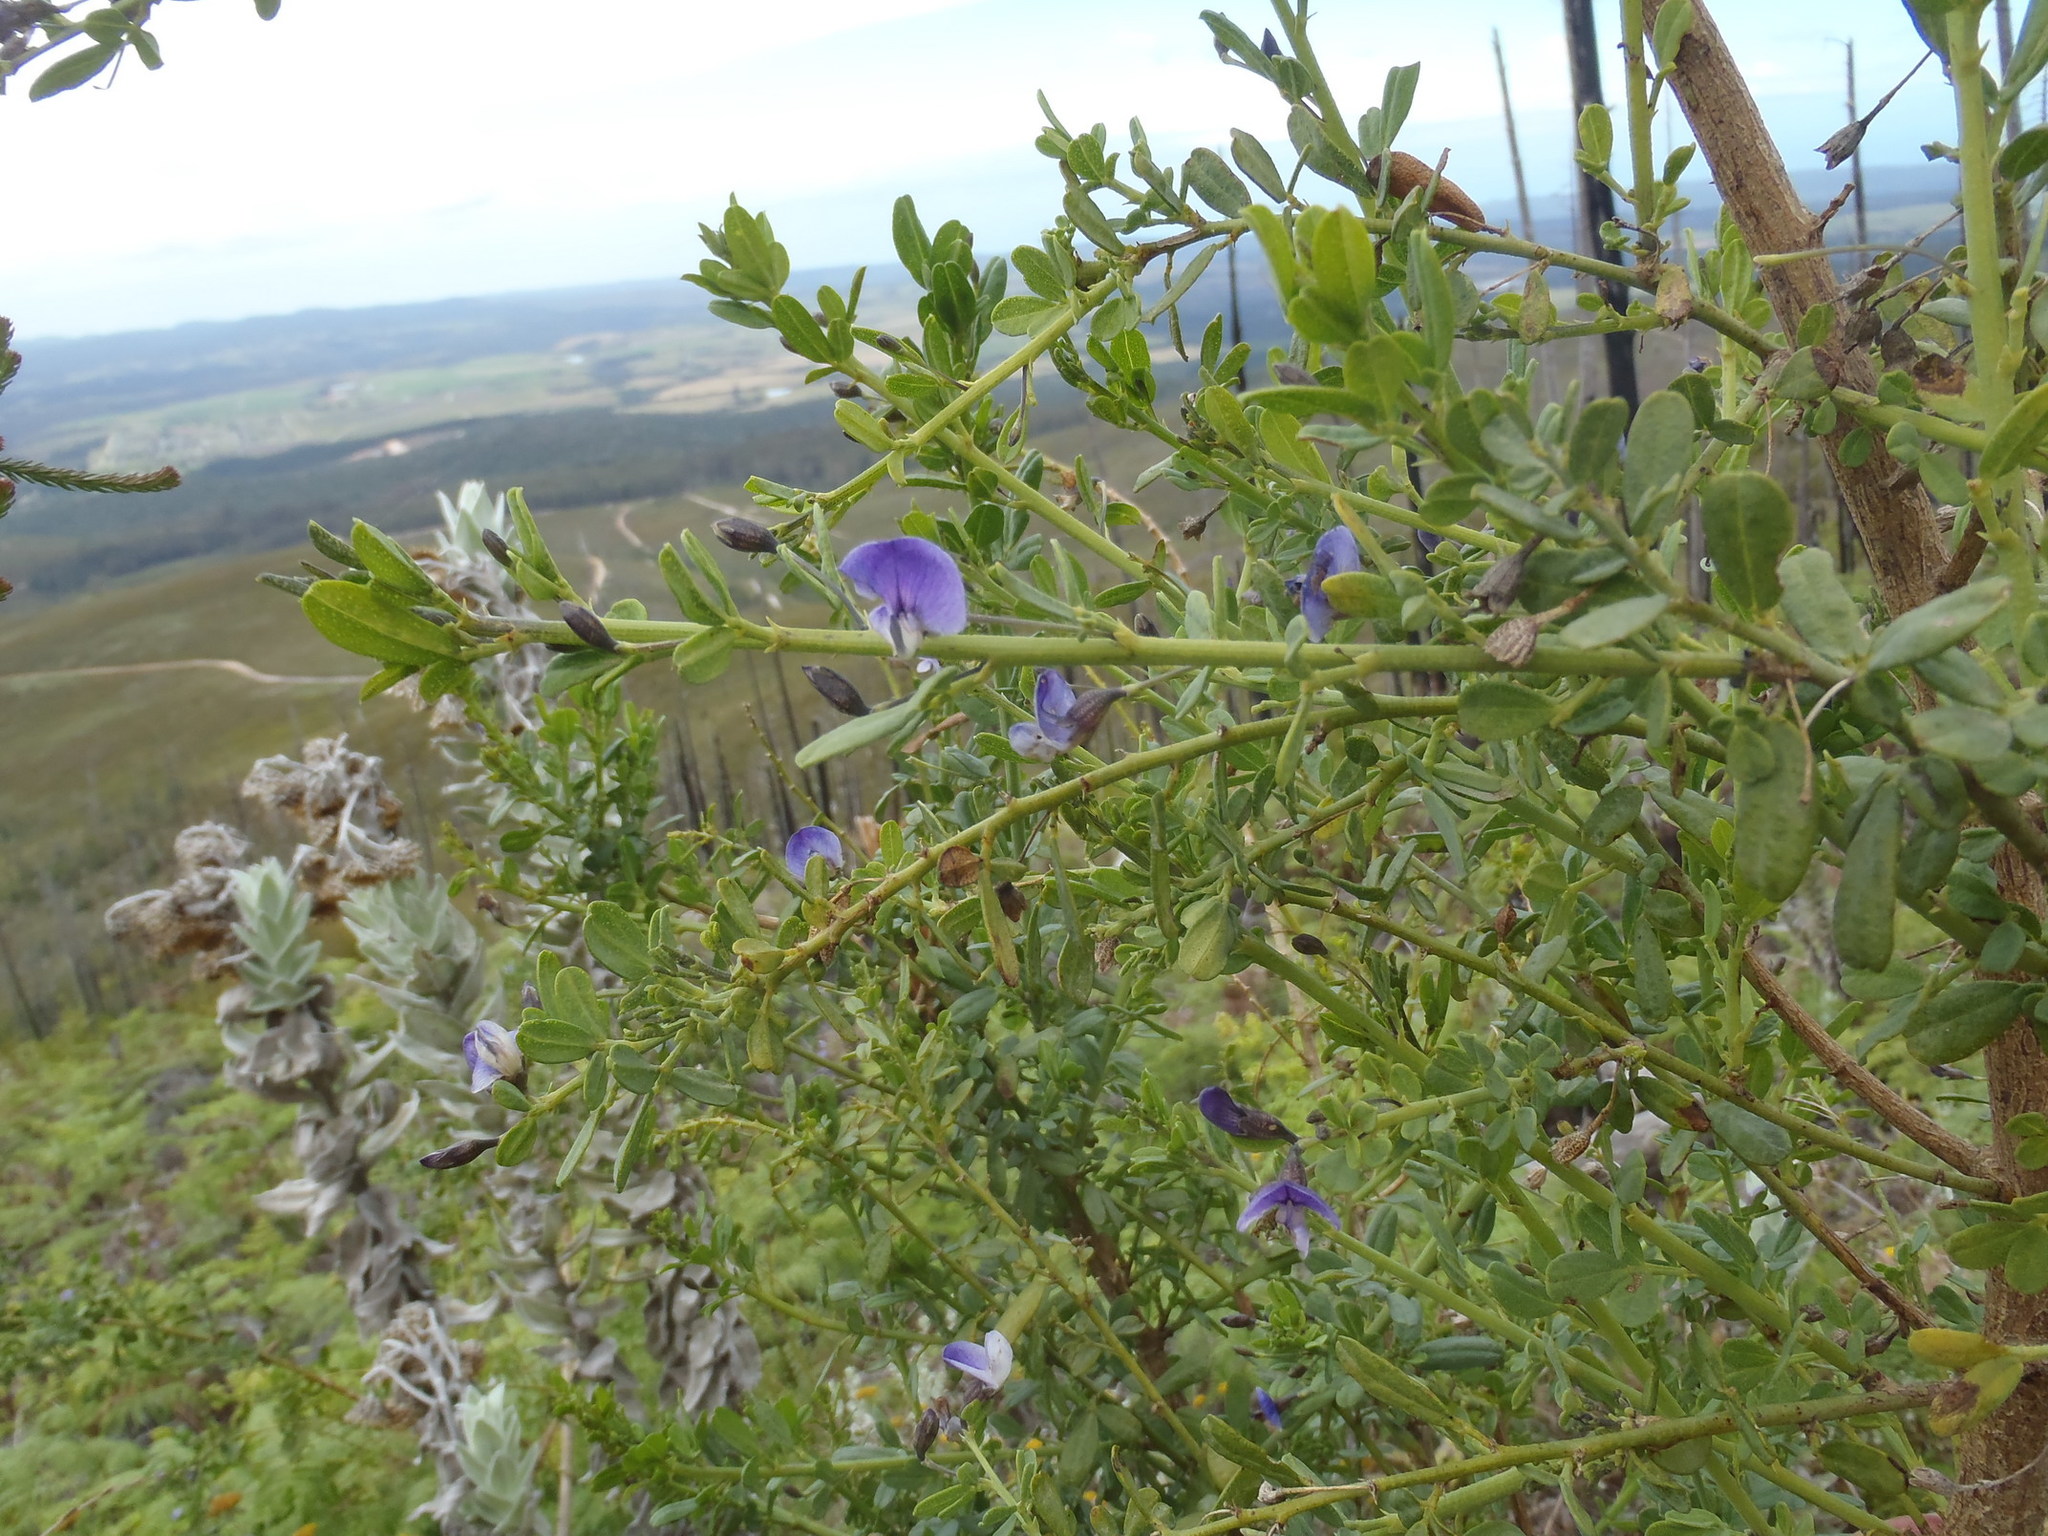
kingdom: Plantae
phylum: Tracheophyta
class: Magnoliopsida
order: Fabales
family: Fabaceae
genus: Psoralea
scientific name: Psoralea keetii
